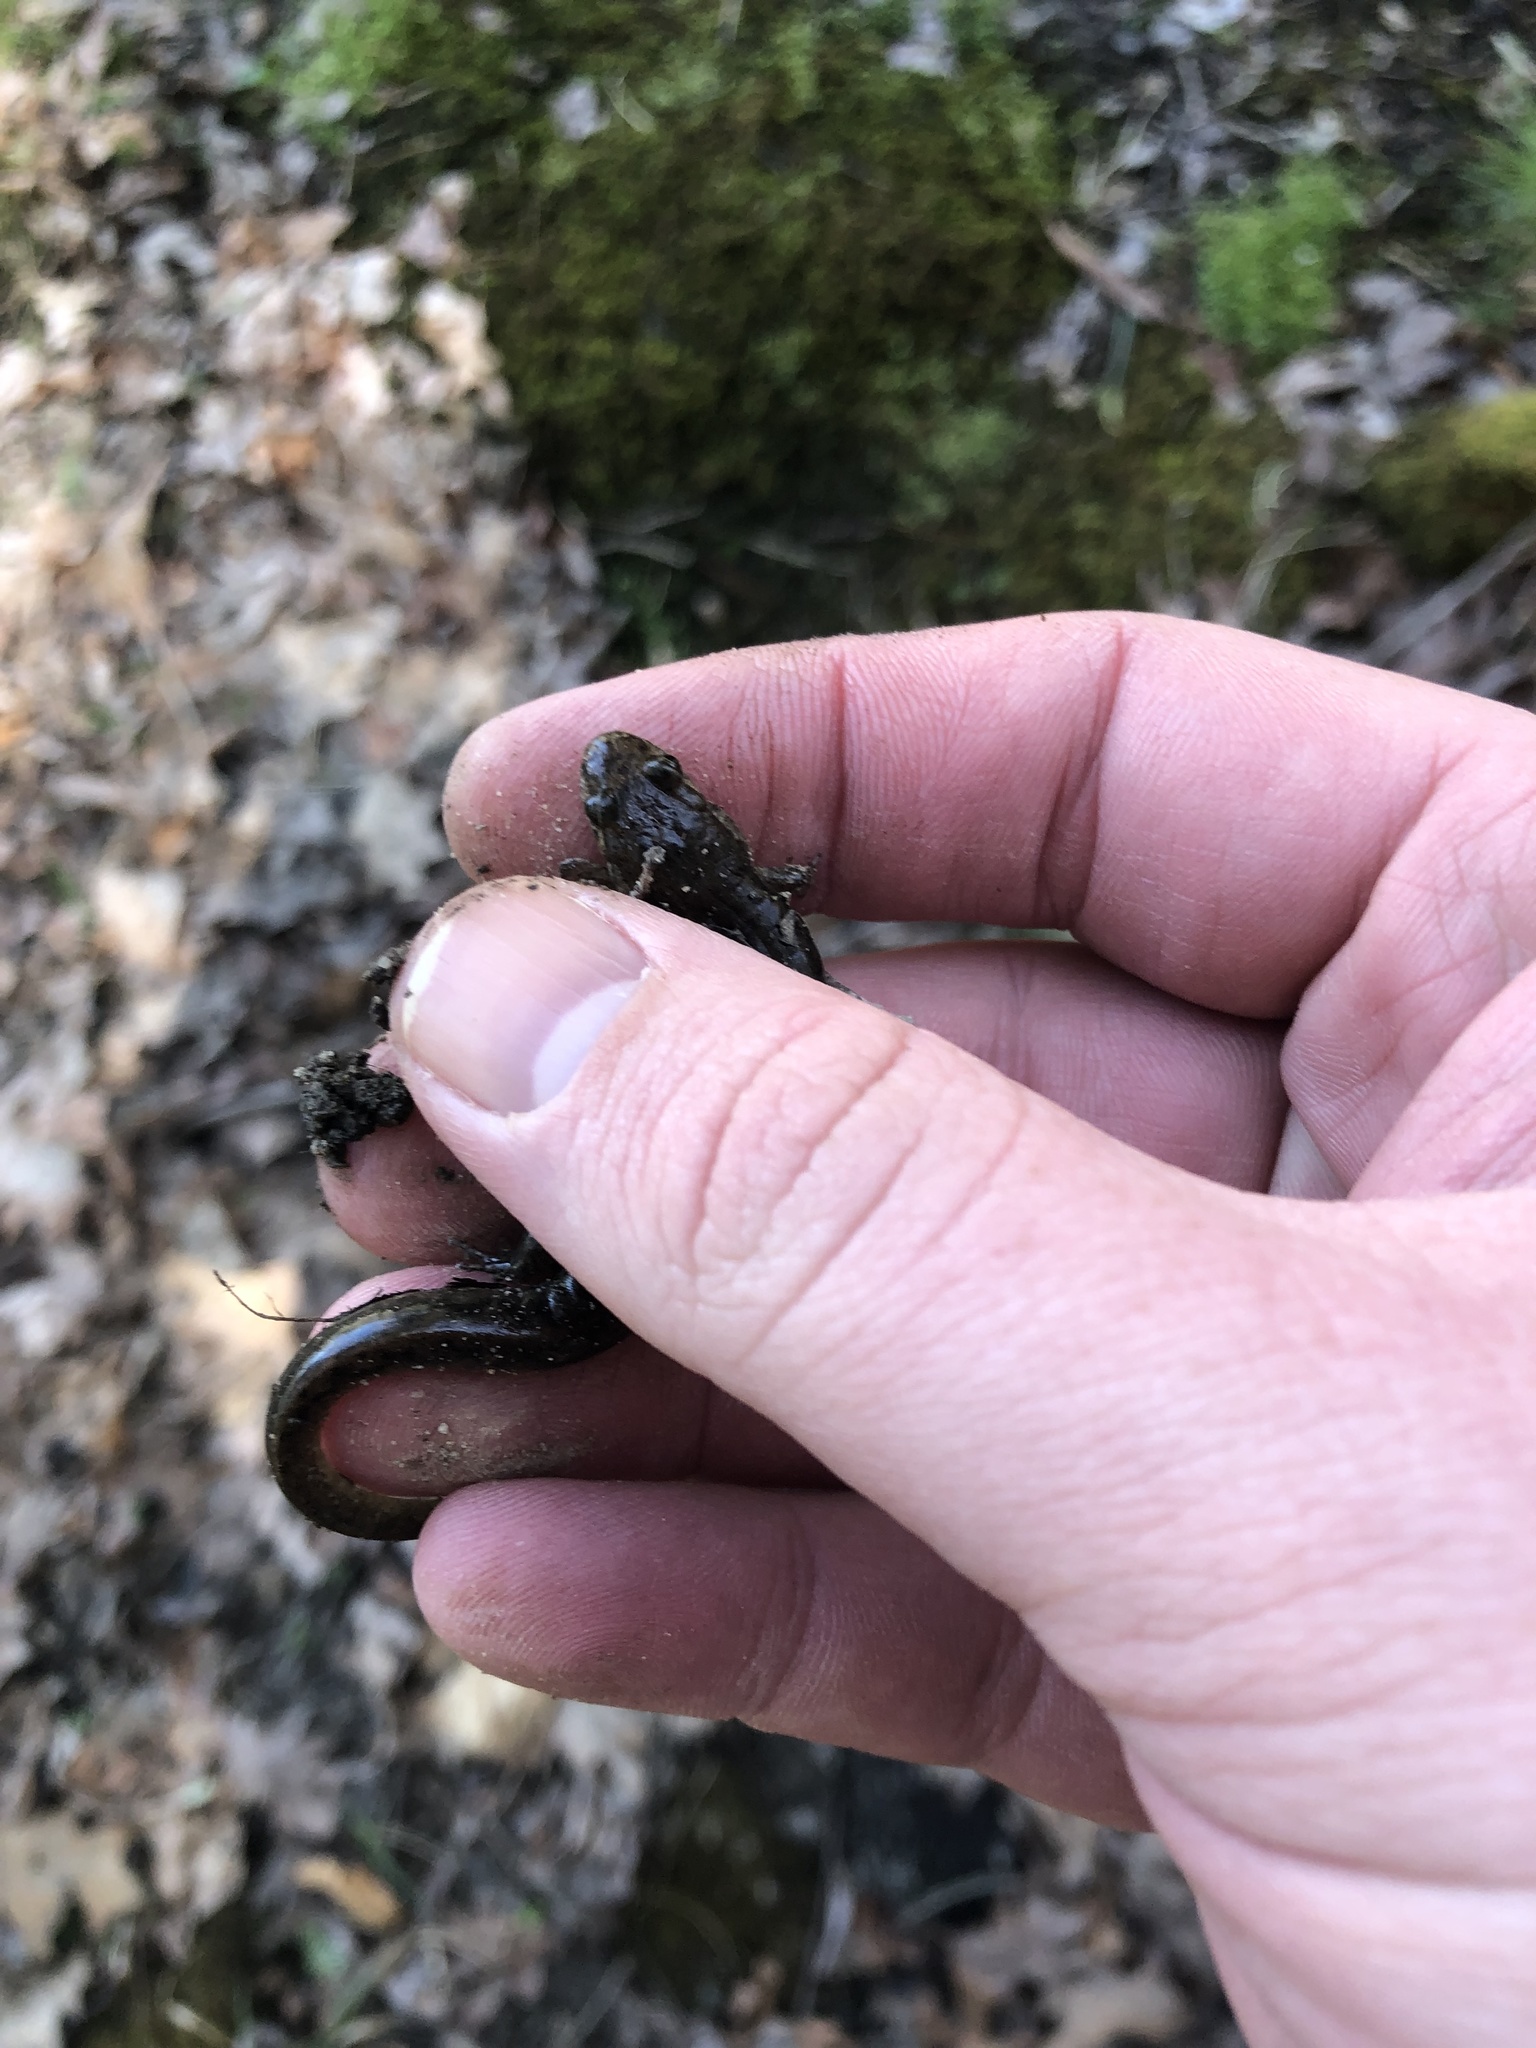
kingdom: Animalia
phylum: Chordata
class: Amphibia
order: Caudata
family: Plethodontidae
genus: Desmognathus
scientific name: Desmognathus fuscus
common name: Northern dusky salamander
